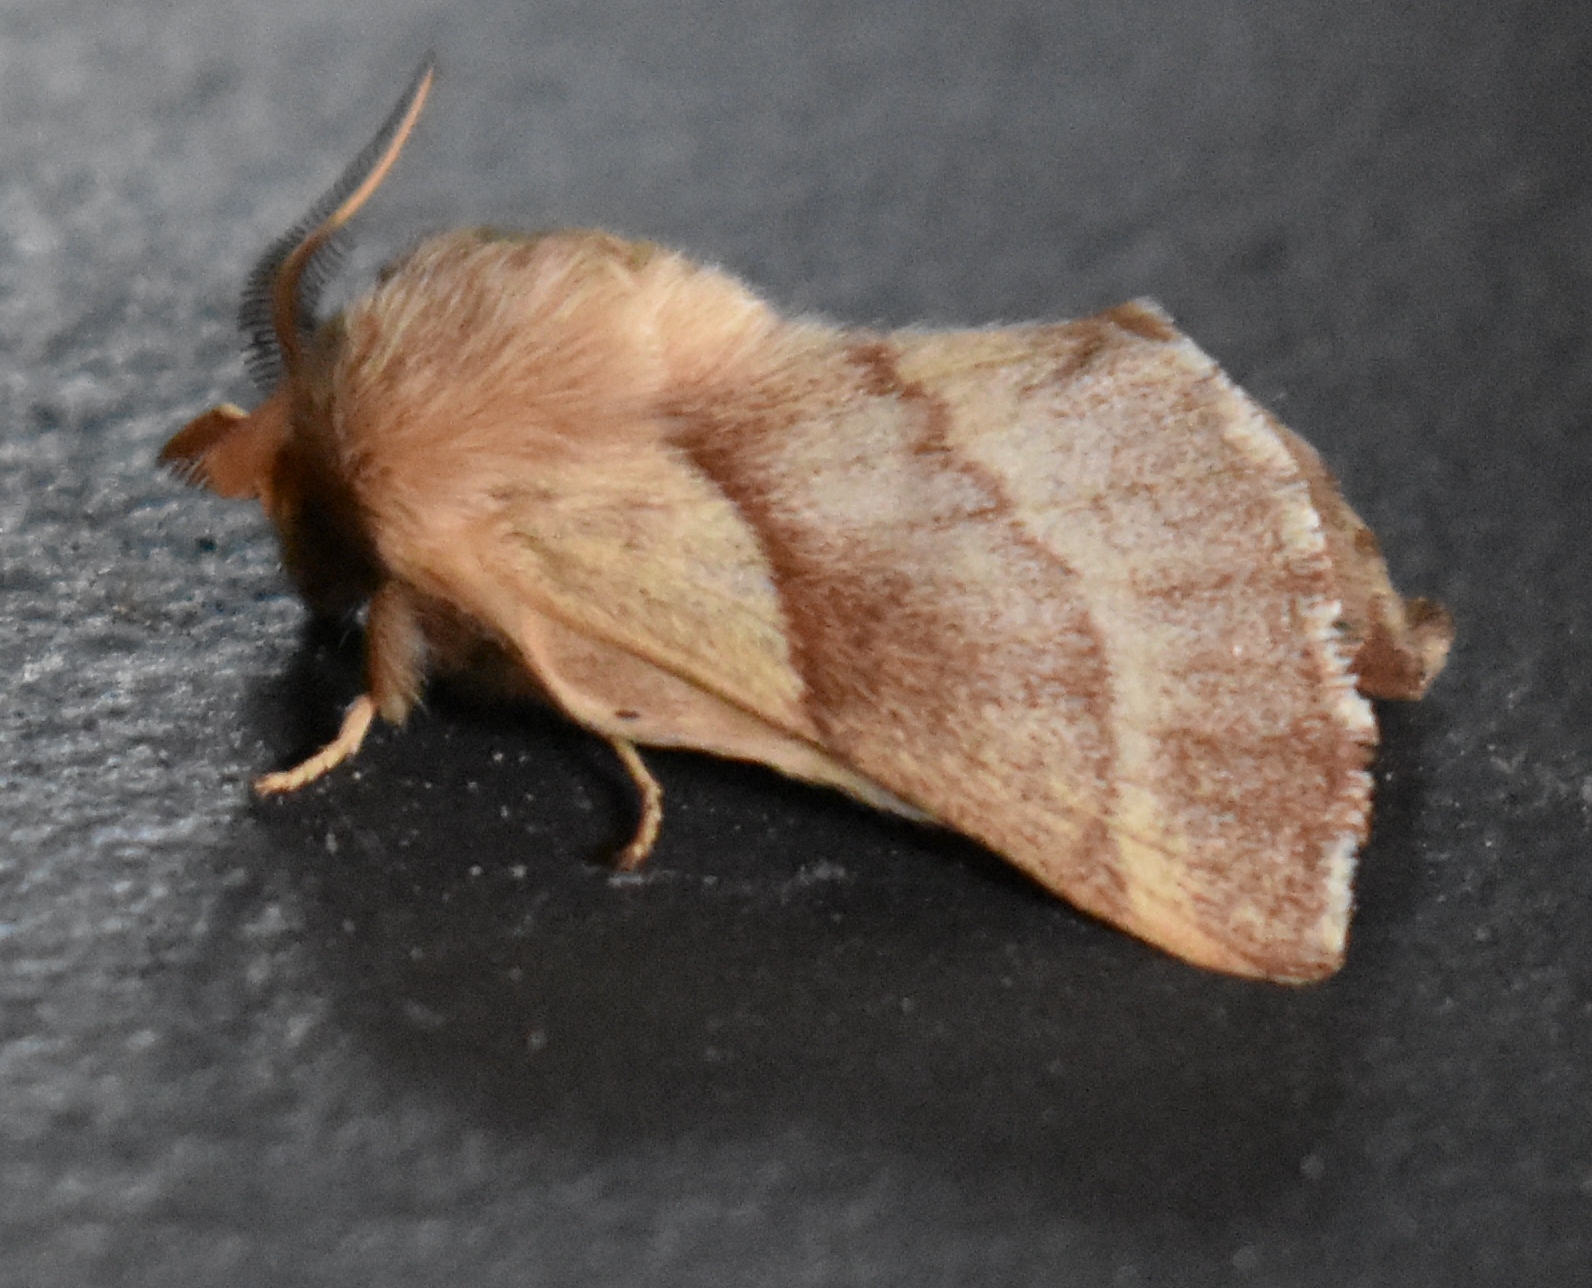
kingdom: Animalia
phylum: Arthropoda
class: Insecta
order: Lepidoptera
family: Lasiocampidae
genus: Malacosoma
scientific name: Malacosoma californica
